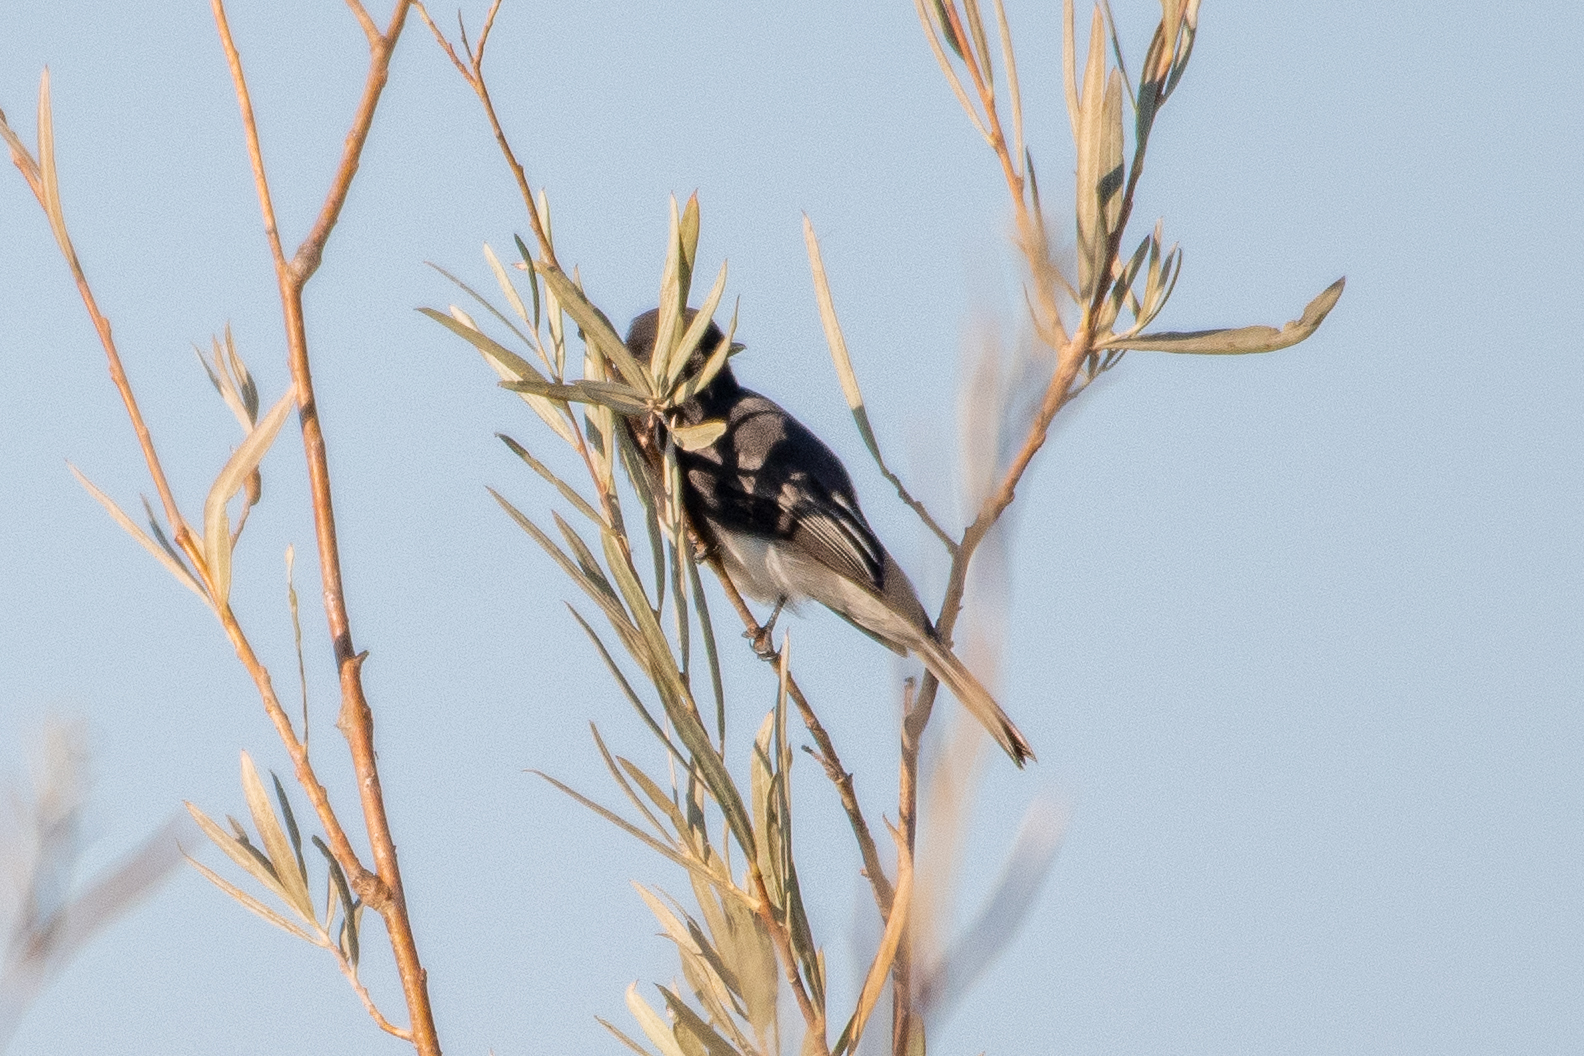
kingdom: Animalia
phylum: Chordata
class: Aves
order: Passeriformes
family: Tyrannidae
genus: Sayornis
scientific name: Sayornis nigricans
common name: Black phoebe
